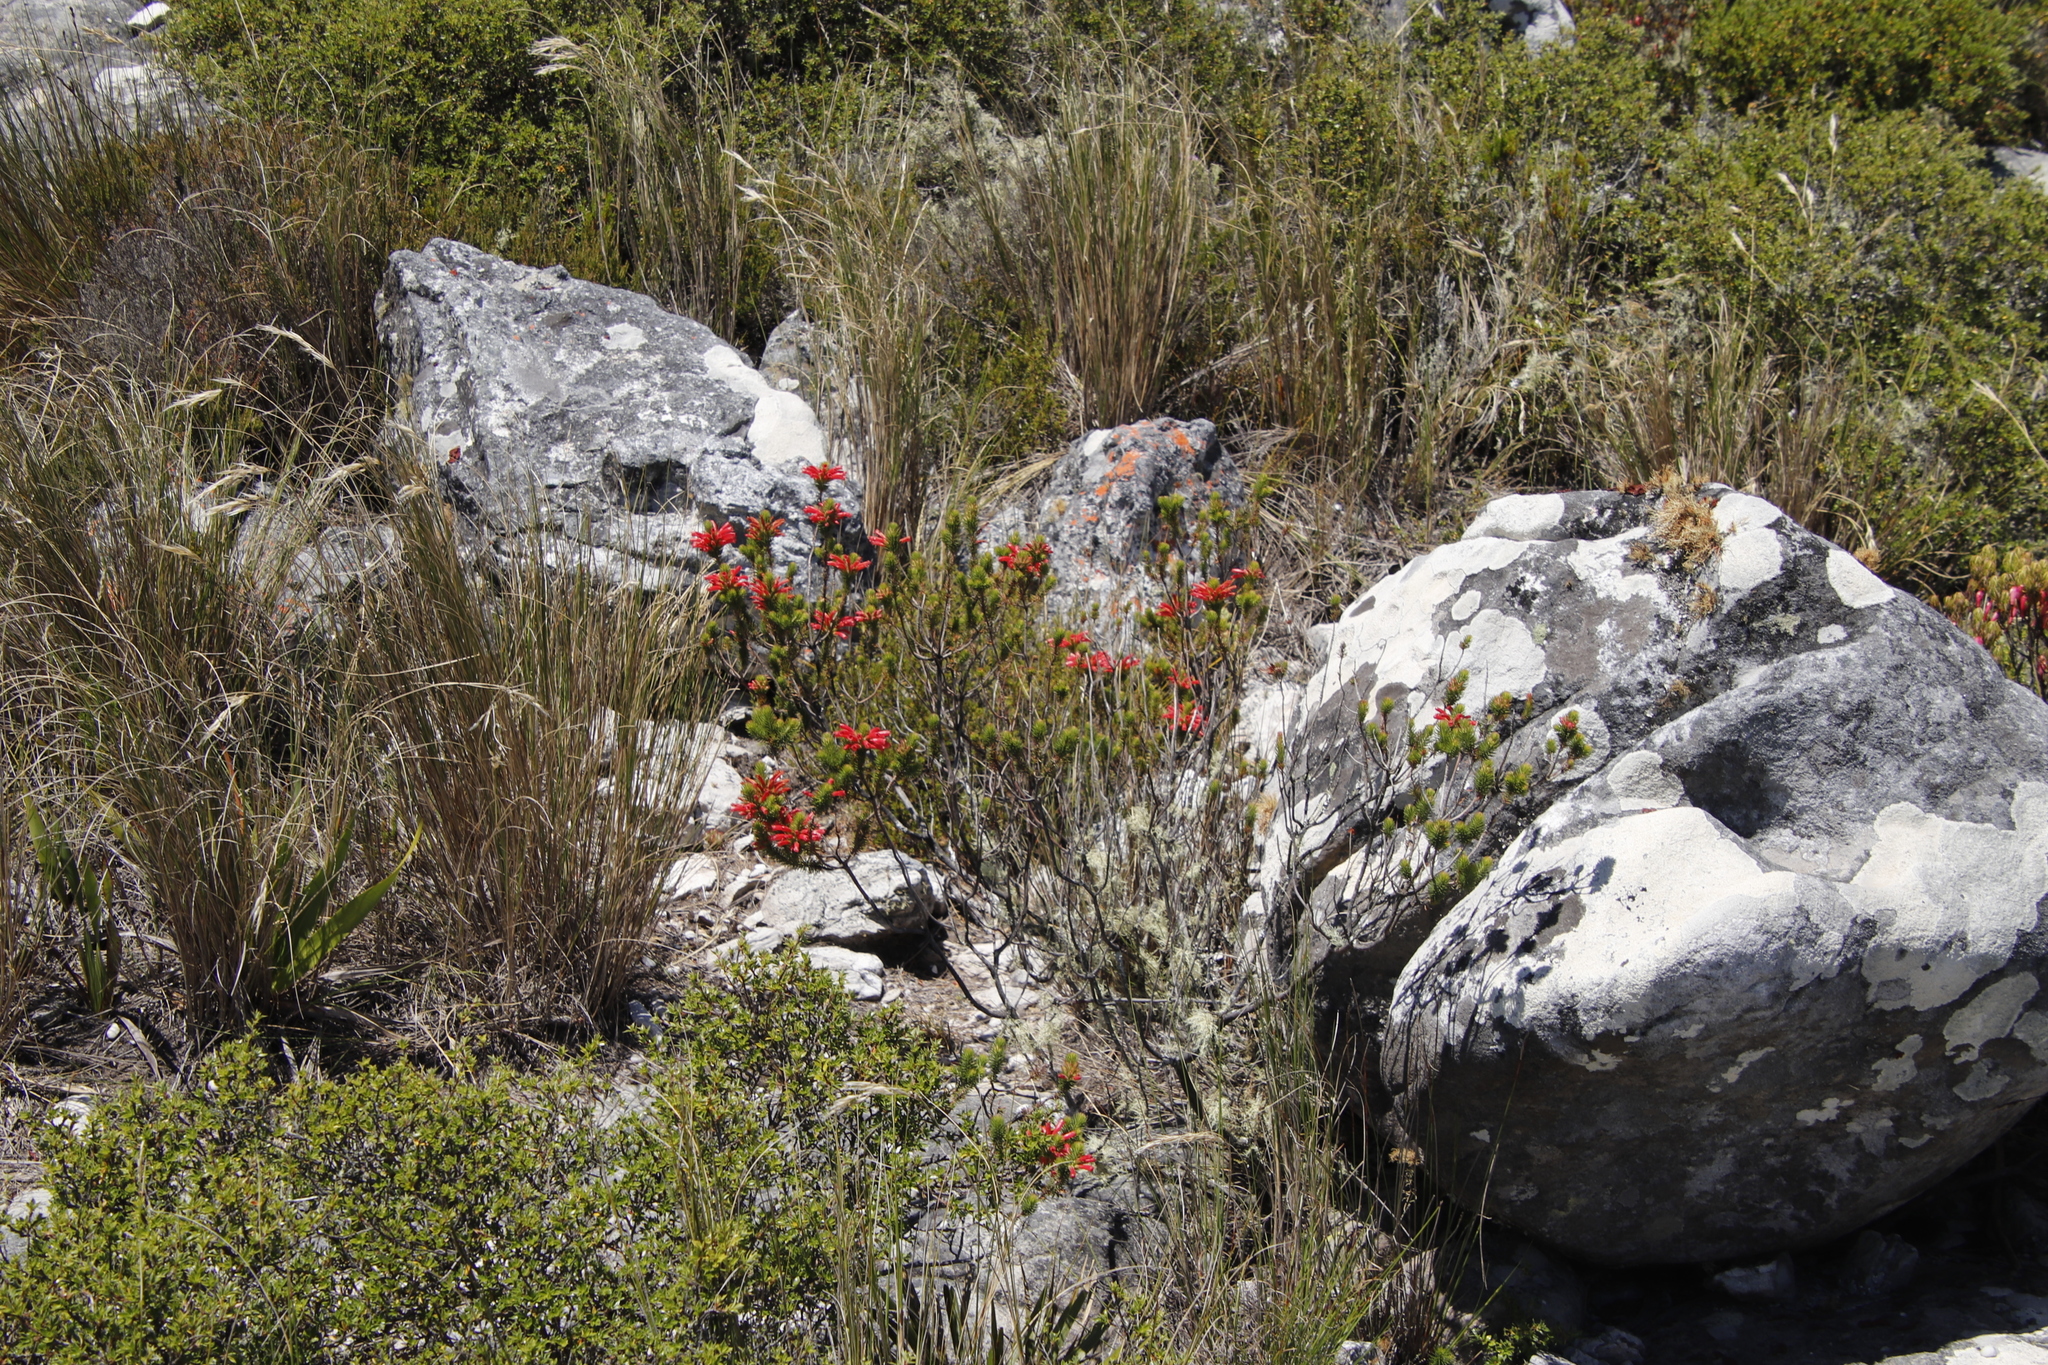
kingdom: Plantae
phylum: Tracheophyta
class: Magnoliopsida
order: Ericales
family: Ericaceae
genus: Erica
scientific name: Erica abietina
